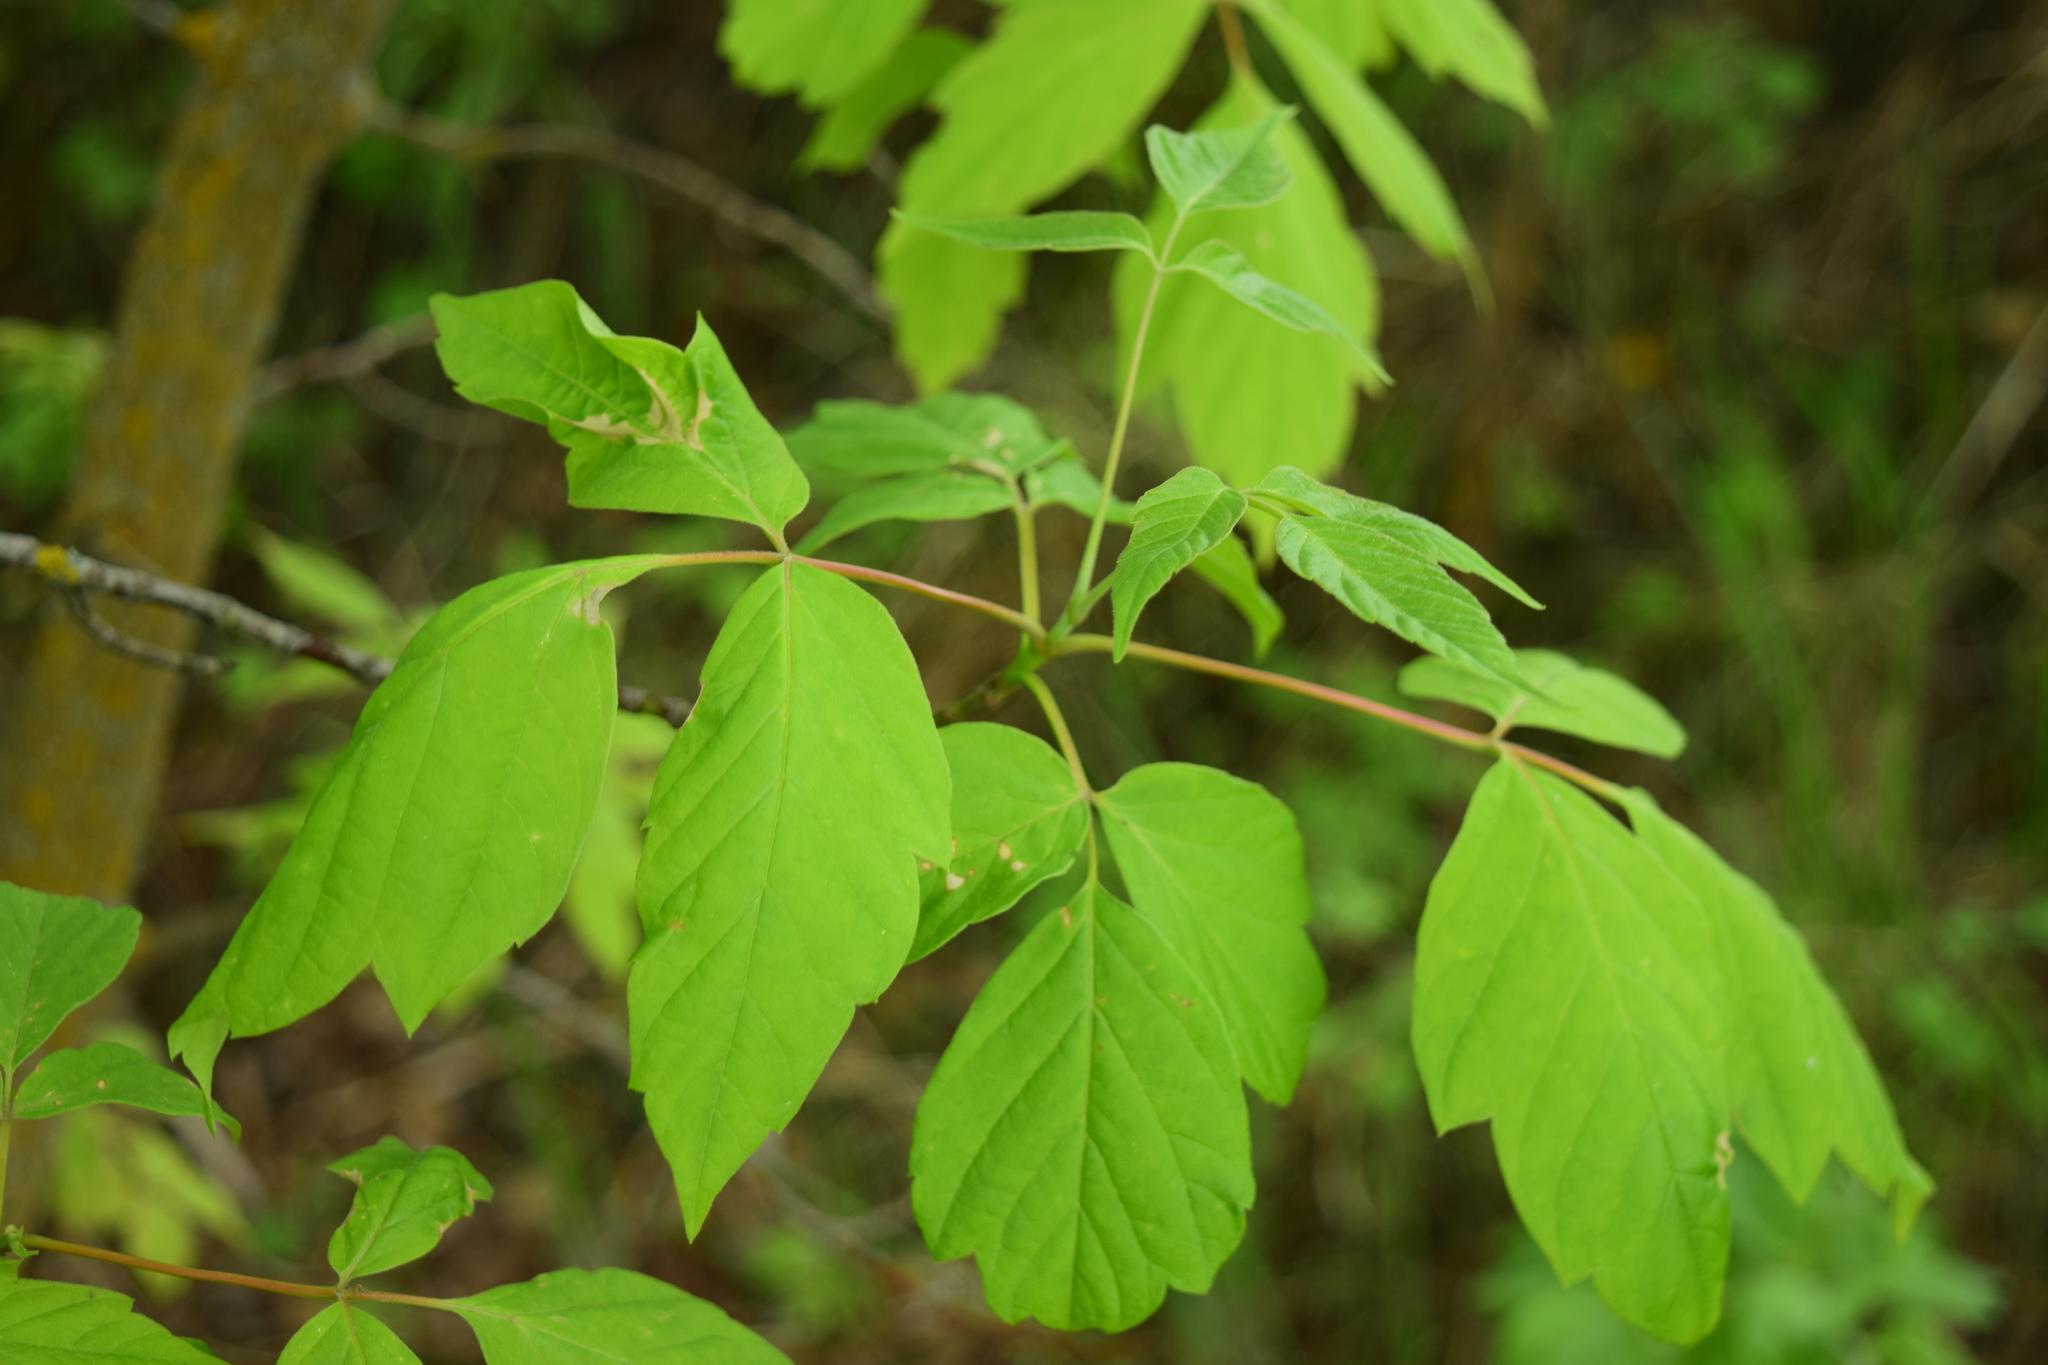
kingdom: Plantae
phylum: Tracheophyta
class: Magnoliopsida
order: Sapindales
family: Sapindaceae
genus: Acer
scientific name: Acer negundo
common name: Ashleaf maple
